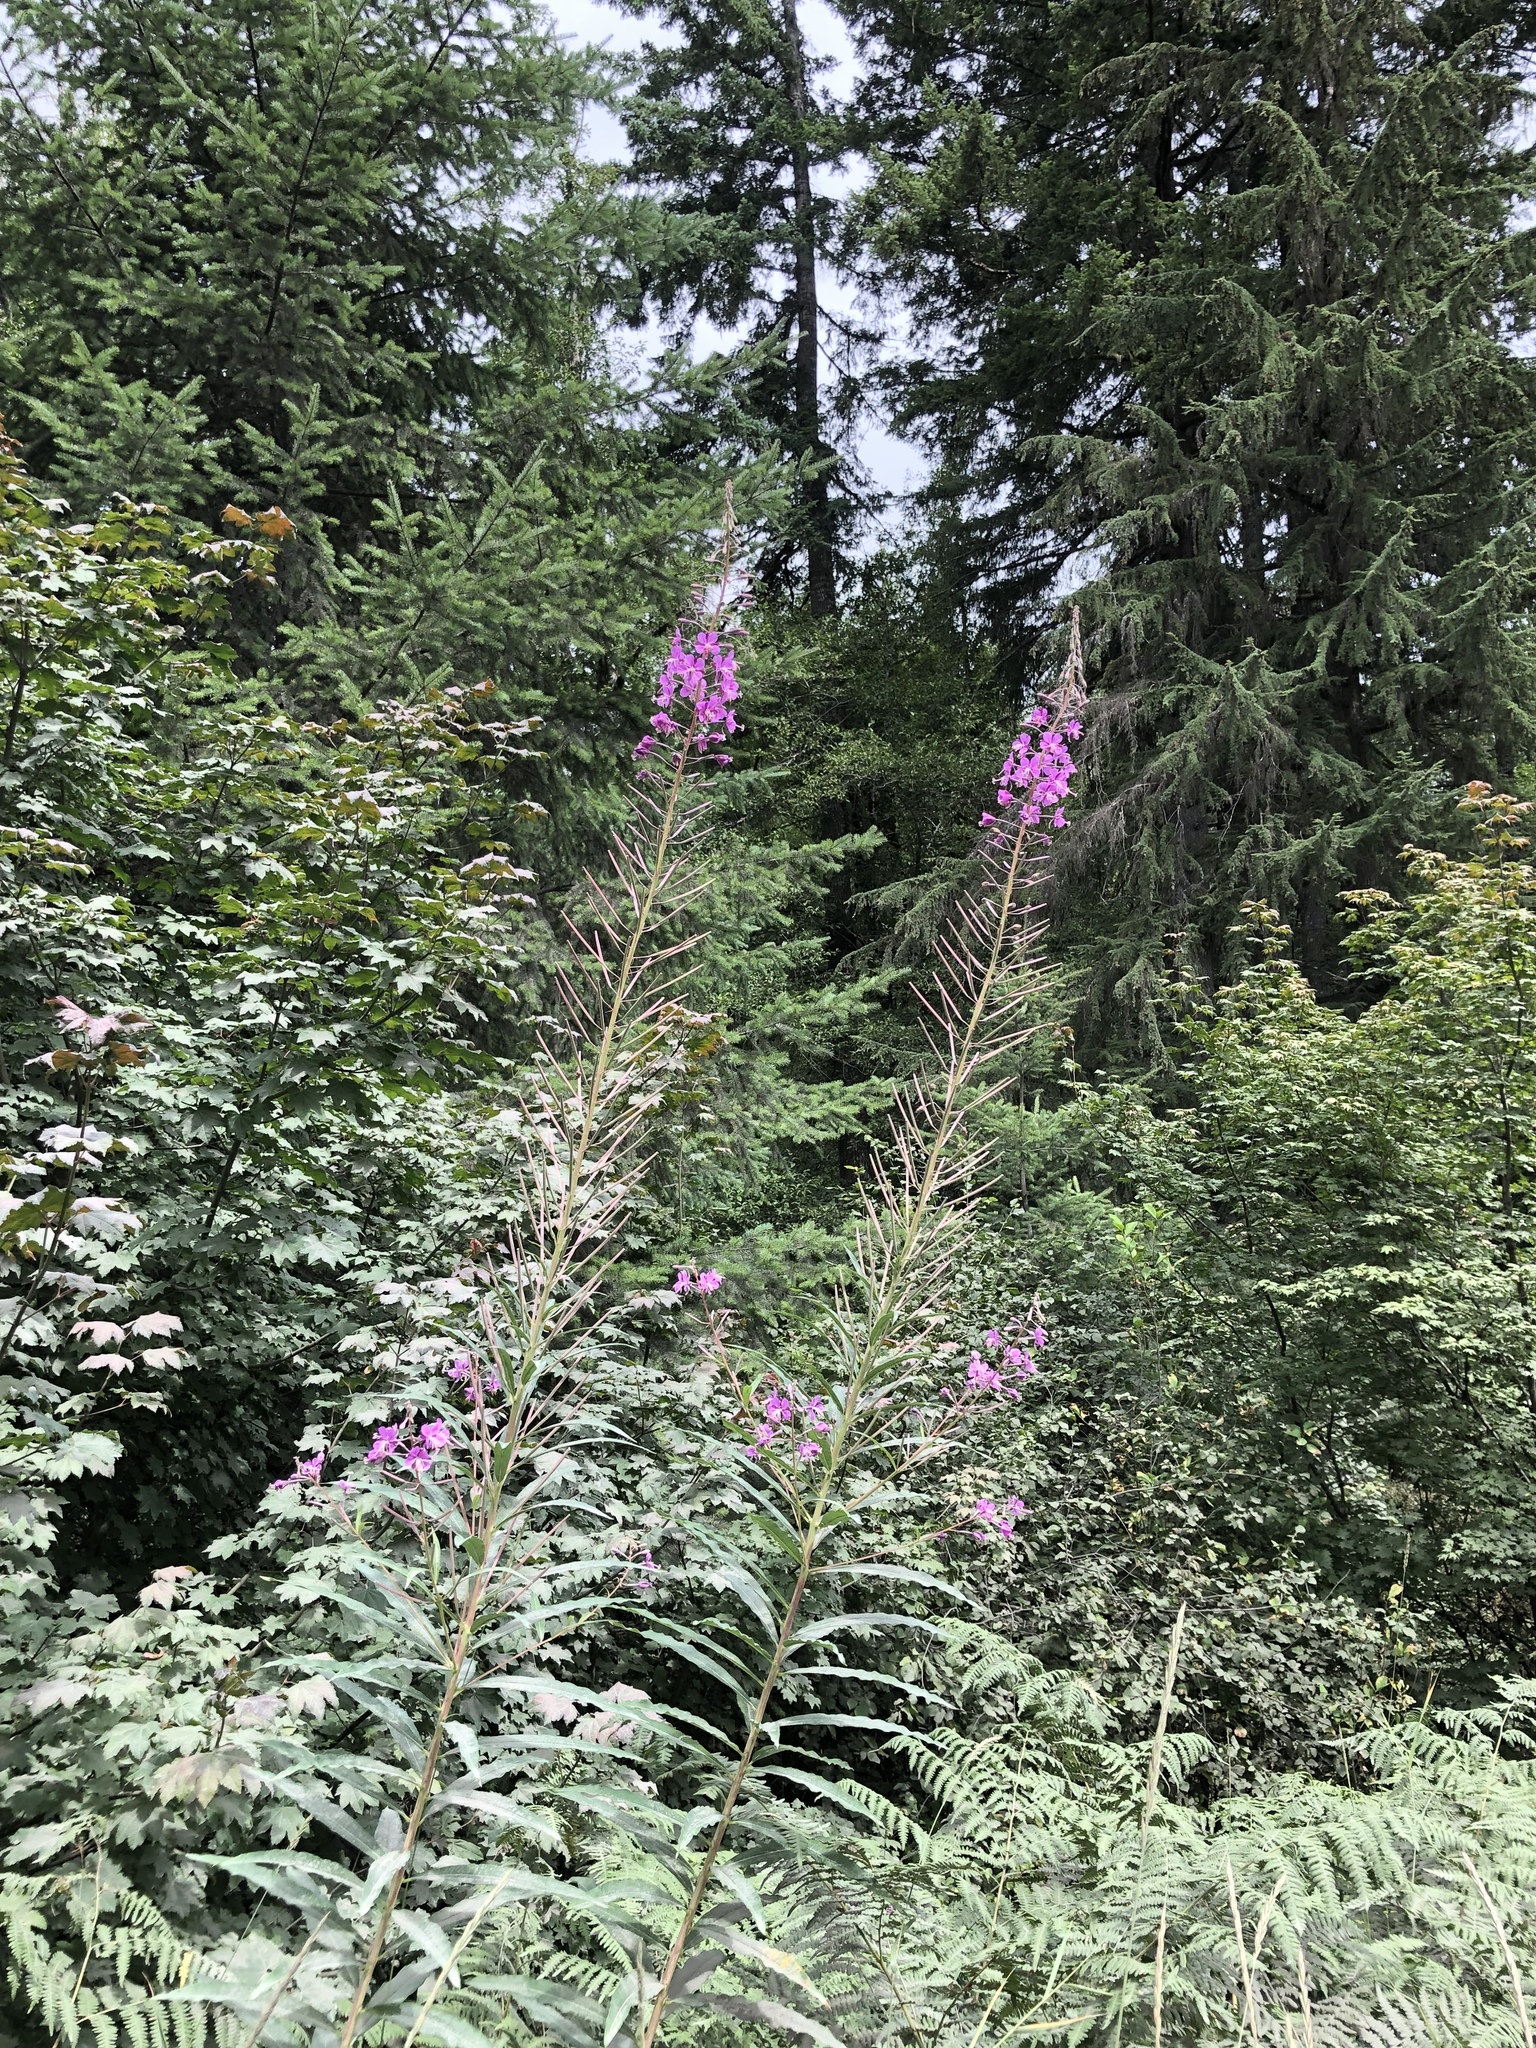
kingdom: Plantae
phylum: Tracheophyta
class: Magnoliopsida
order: Myrtales
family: Onagraceae
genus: Chamaenerion
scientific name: Chamaenerion angustifolium
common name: Fireweed
